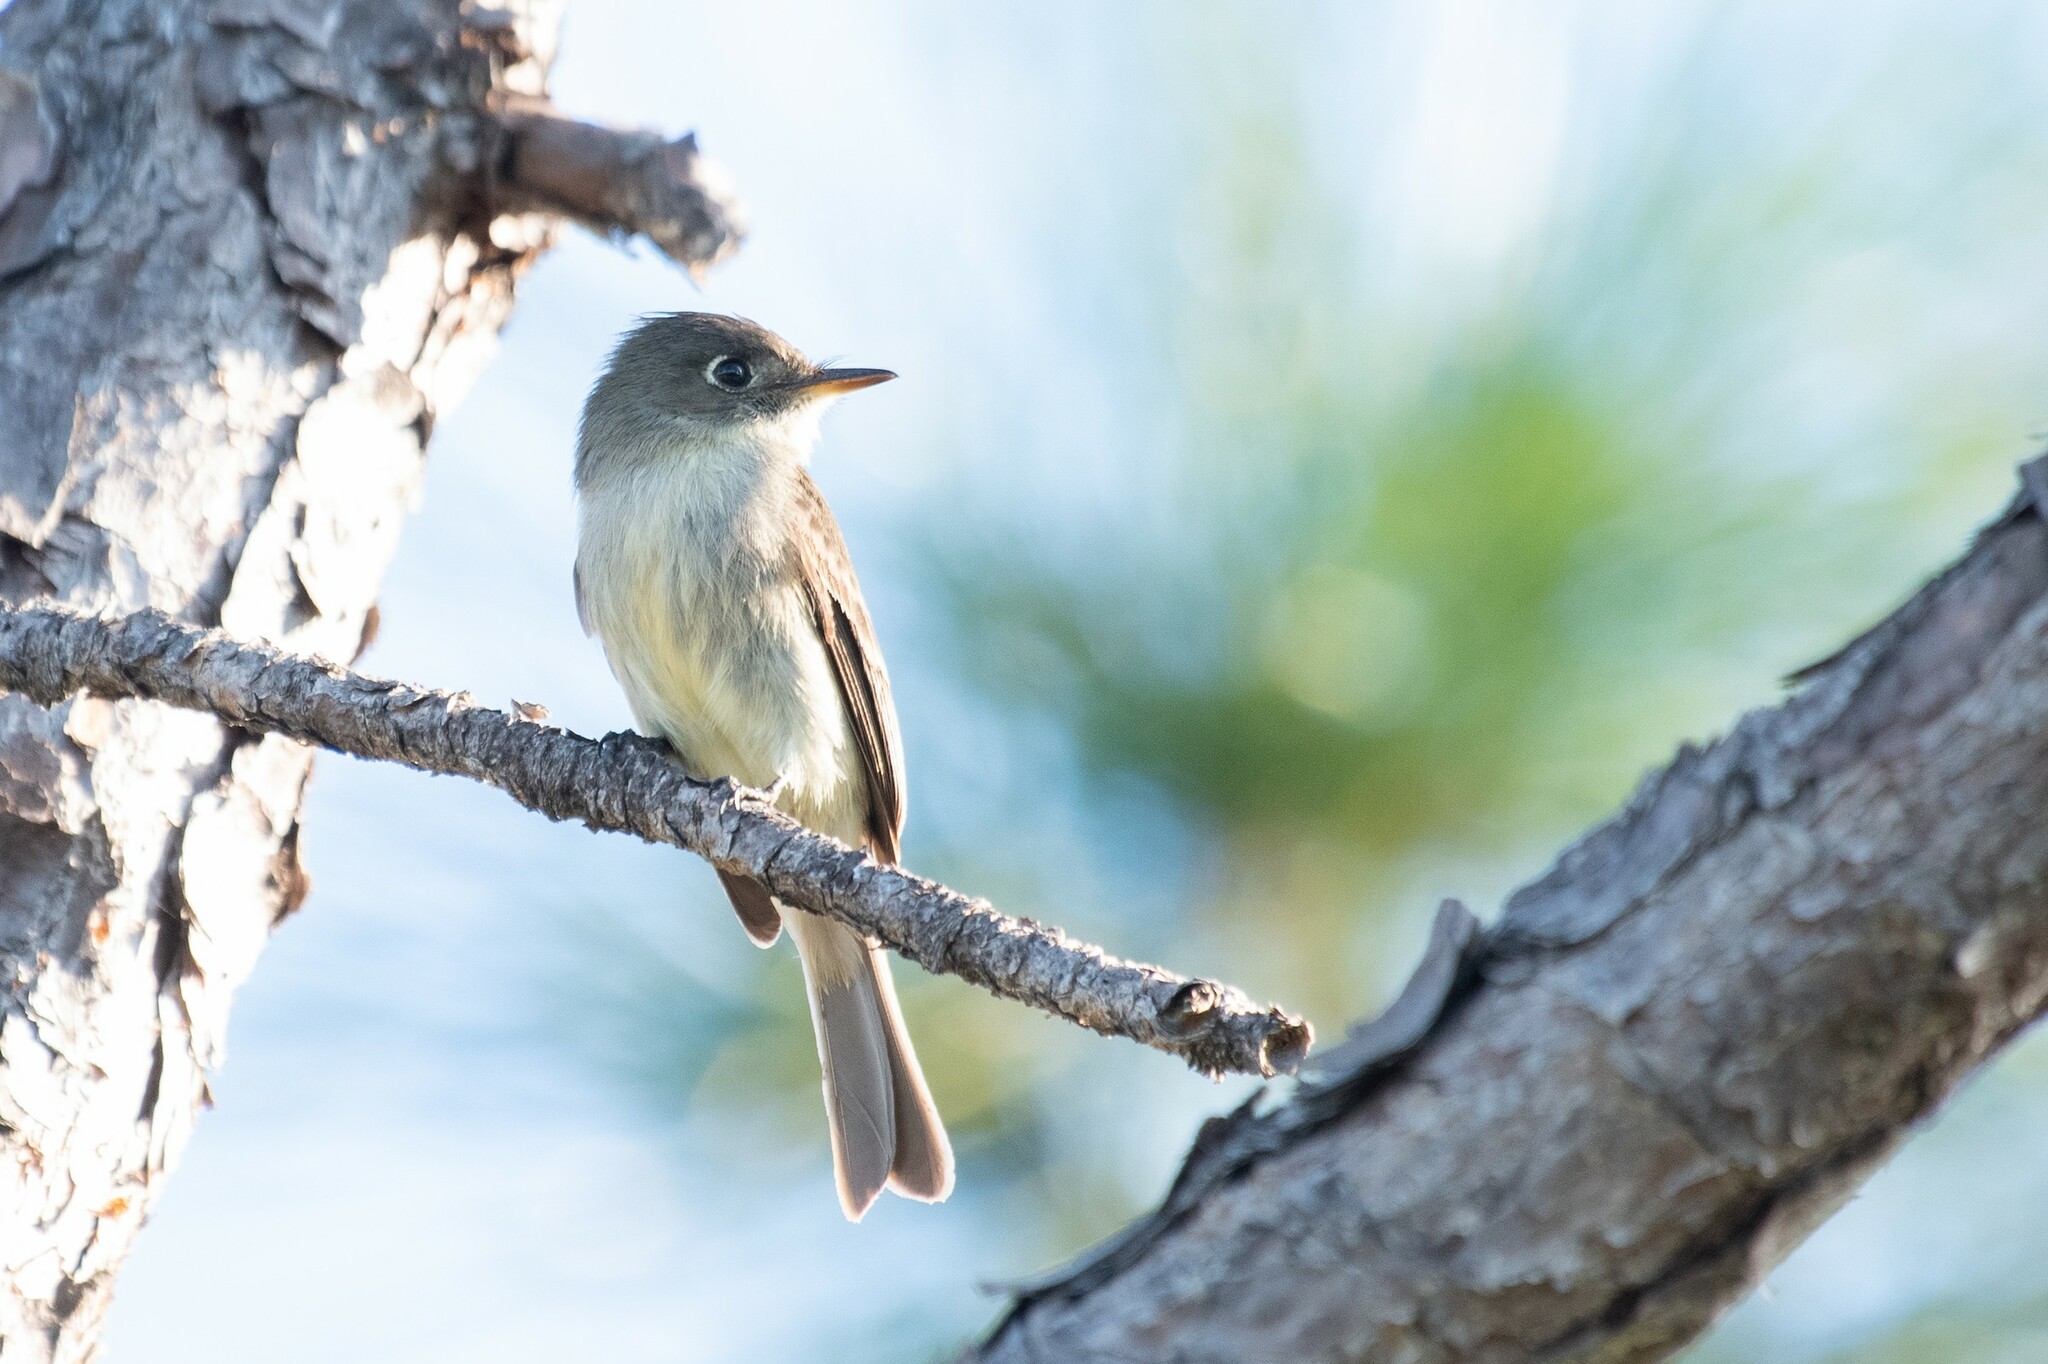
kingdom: Animalia
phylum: Chordata
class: Aves
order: Passeriformes
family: Tyrannidae
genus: Contopus
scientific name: Contopus caribaeus
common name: Cuban pewee
